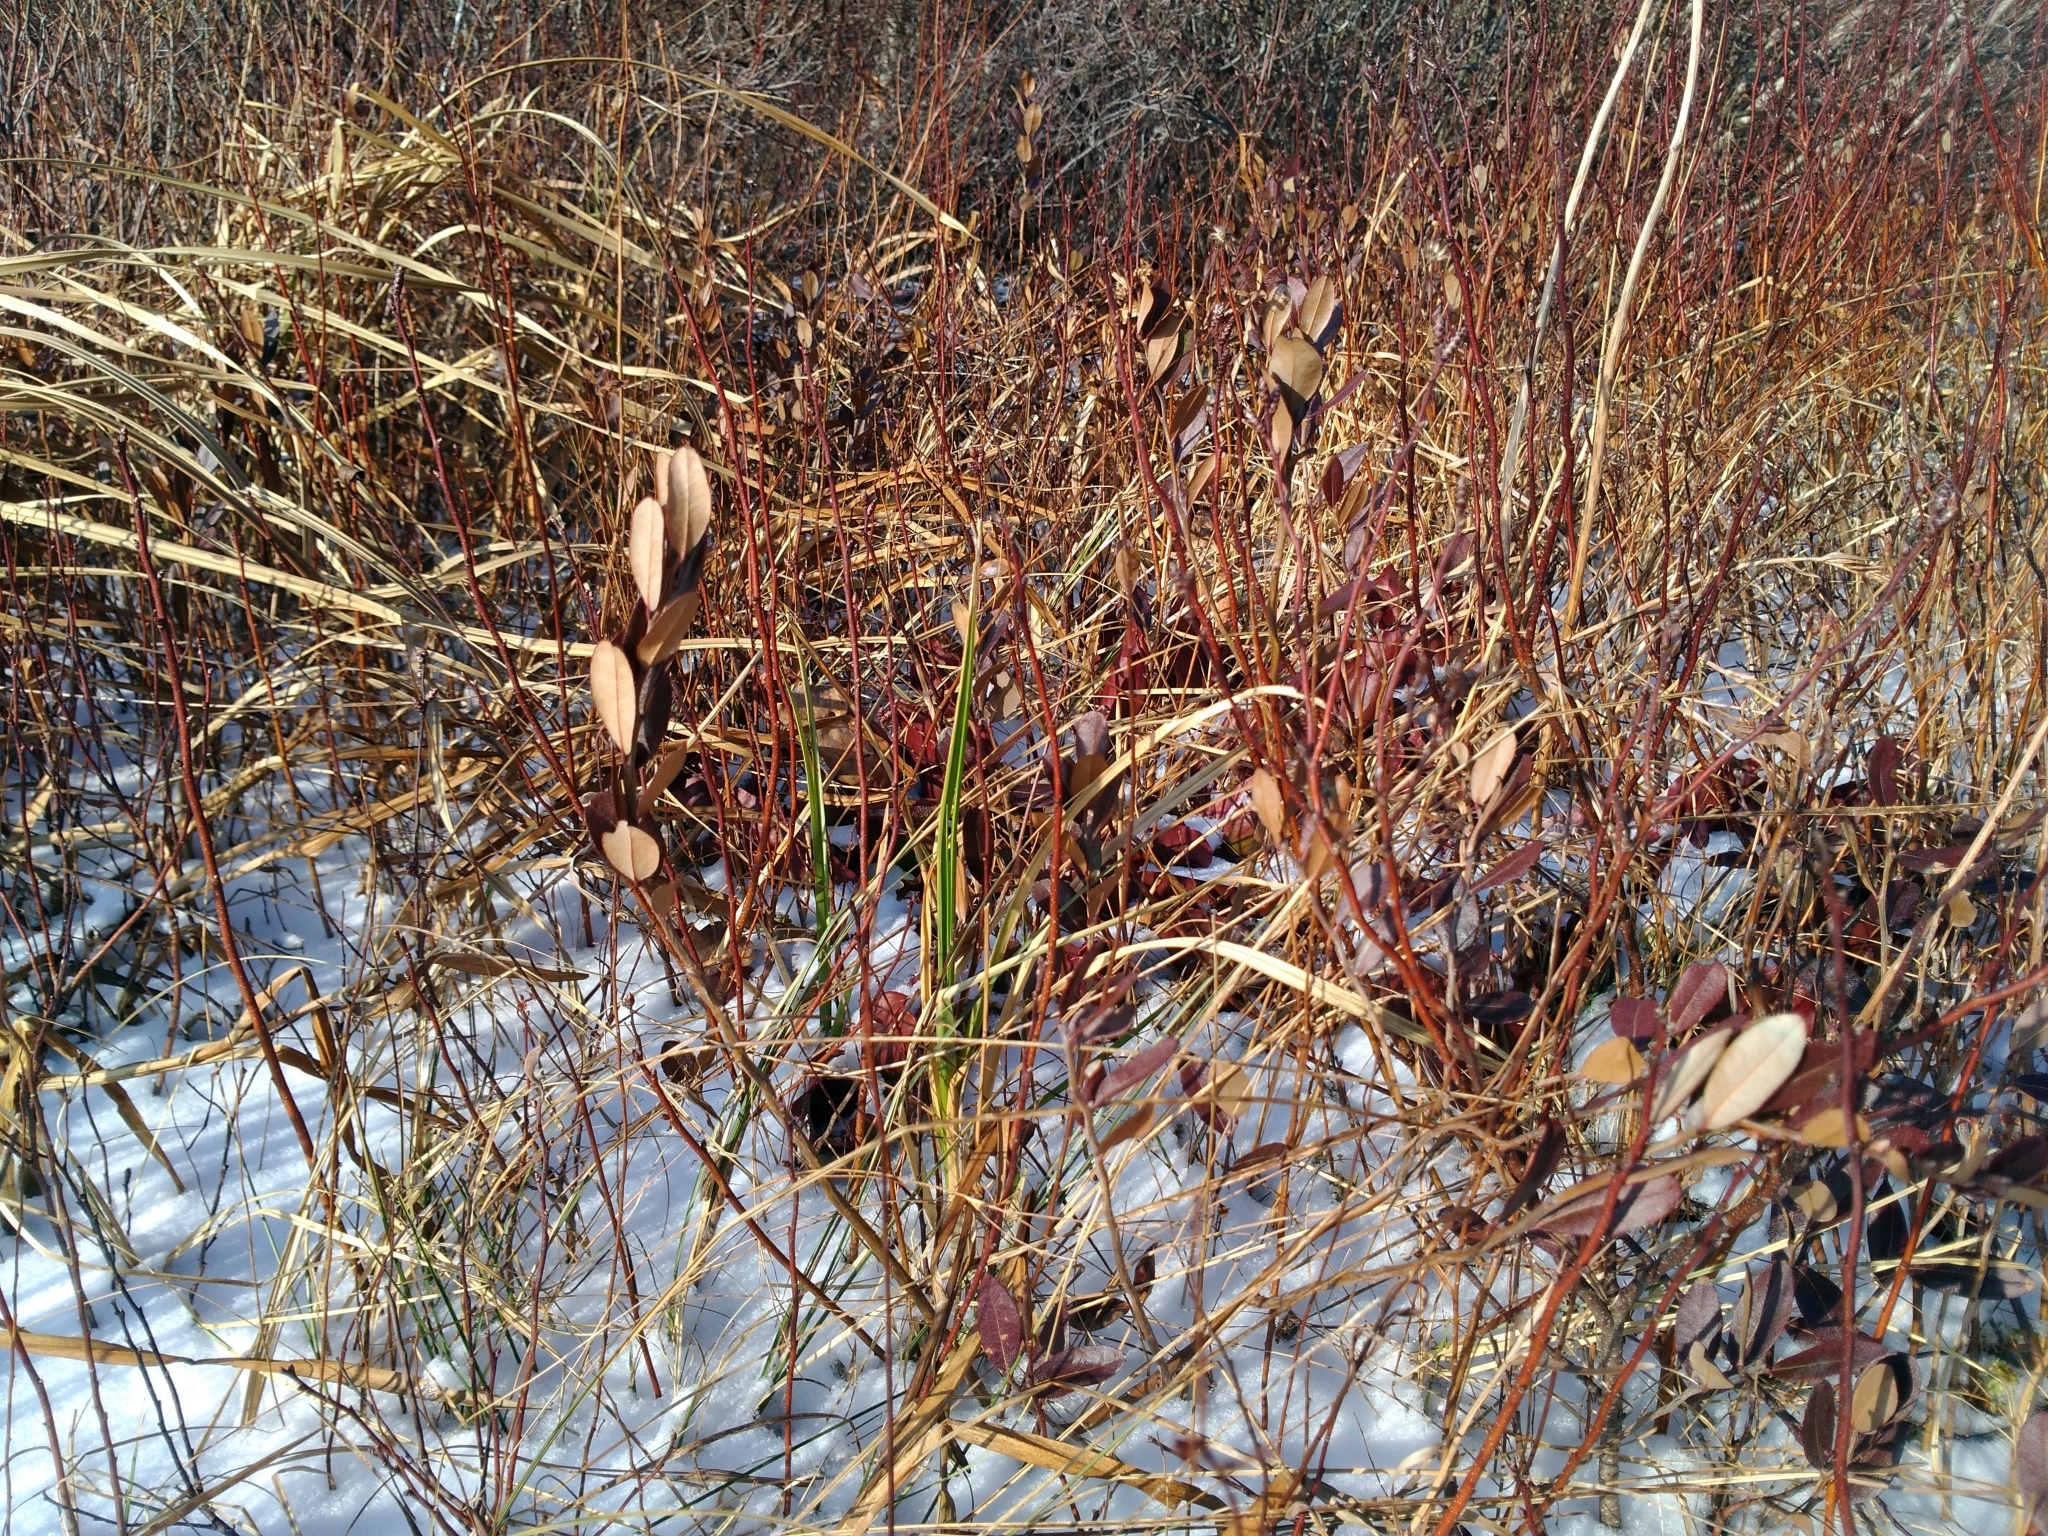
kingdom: Plantae
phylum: Tracheophyta
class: Magnoliopsida
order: Ericales
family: Ericaceae
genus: Chamaedaphne
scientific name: Chamaedaphne calyculata
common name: Leatherleaf
